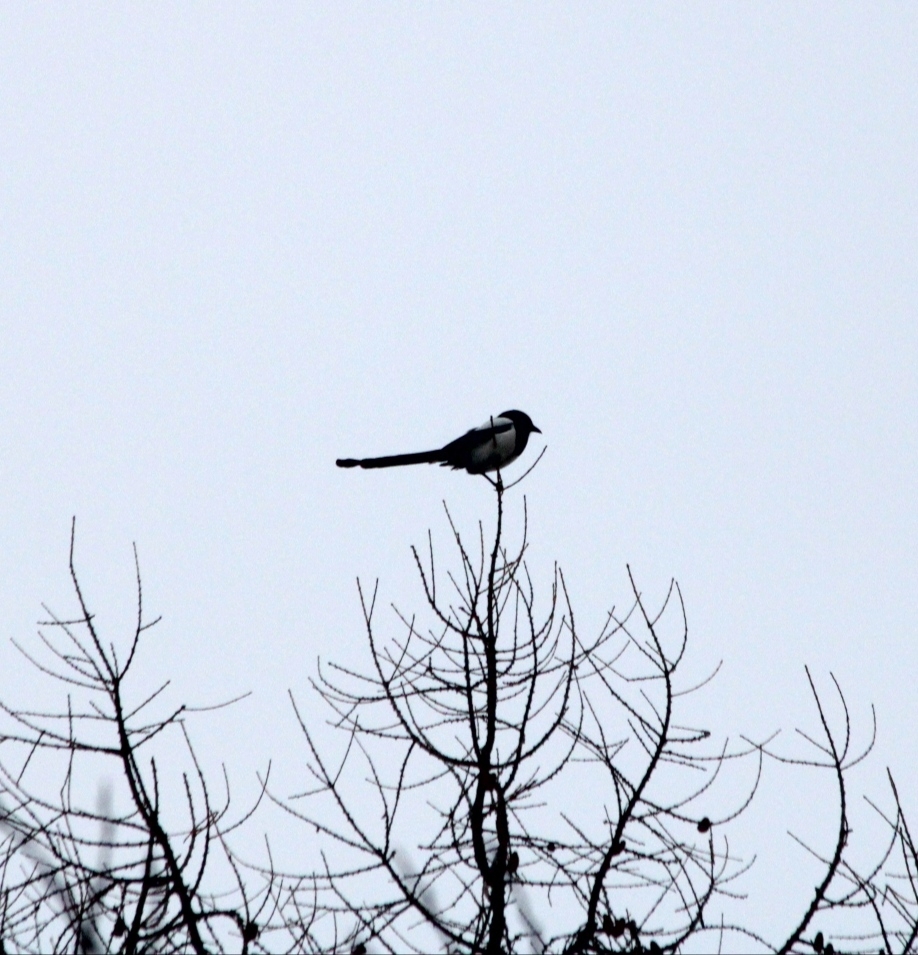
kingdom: Animalia
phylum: Chordata
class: Aves
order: Passeriformes
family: Corvidae
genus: Pica
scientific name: Pica pica
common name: Eurasian magpie
